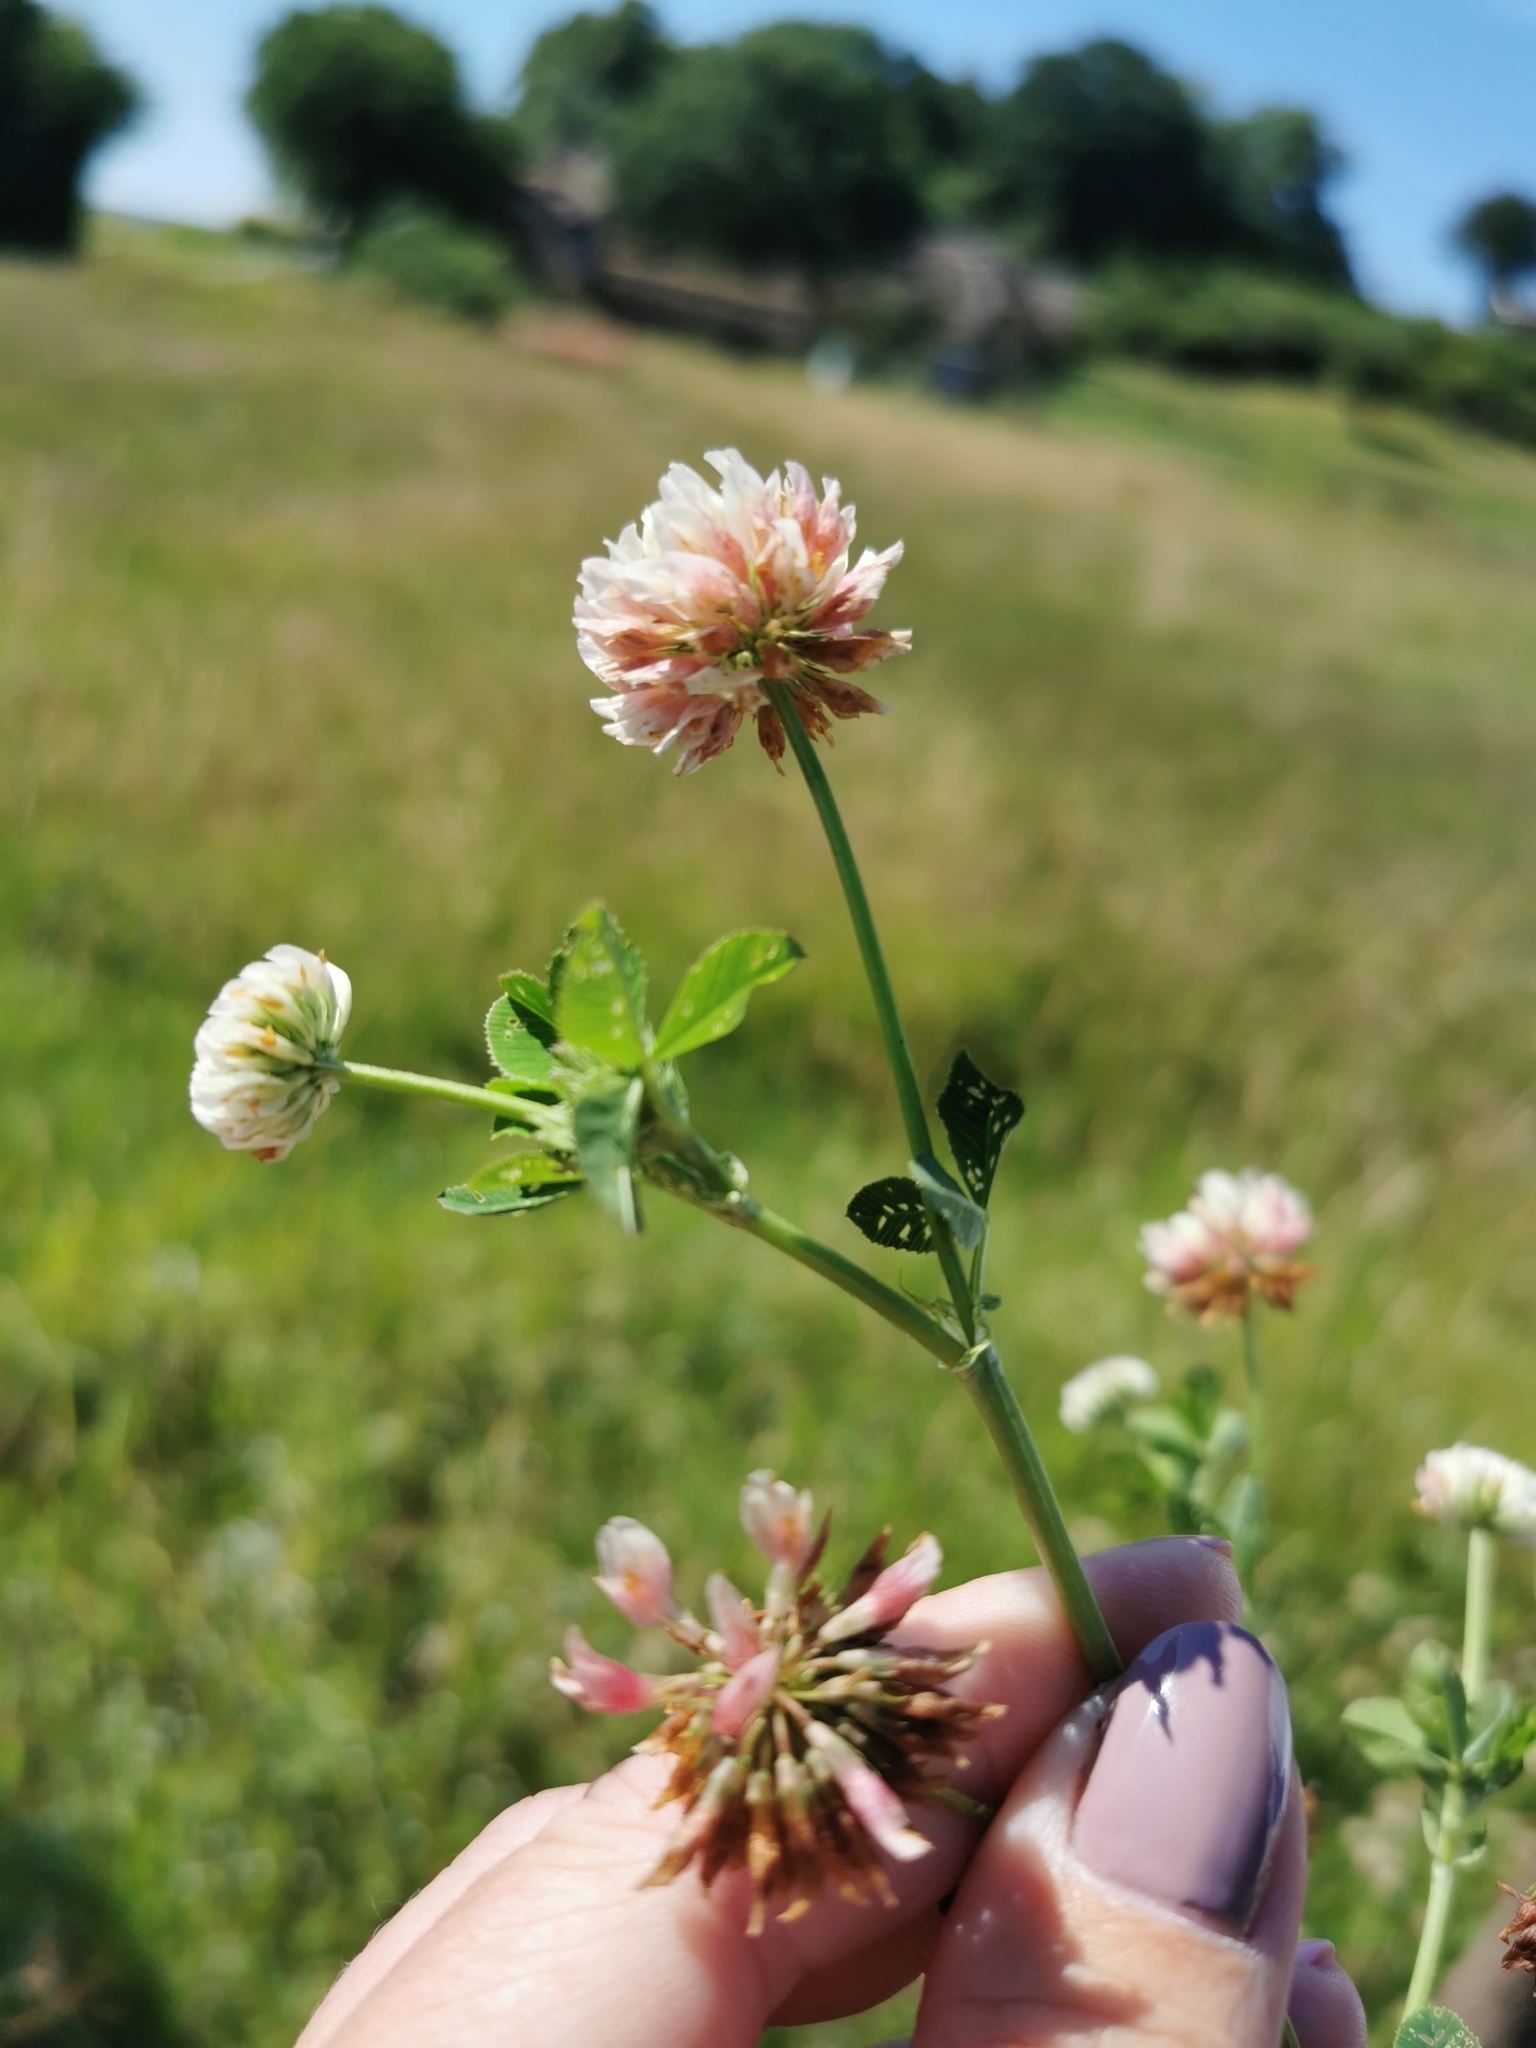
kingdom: Plantae
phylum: Tracheophyta
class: Magnoliopsida
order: Fabales
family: Fabaceae
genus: Trifolium
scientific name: Trifolium hybridum
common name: Alsike clover
